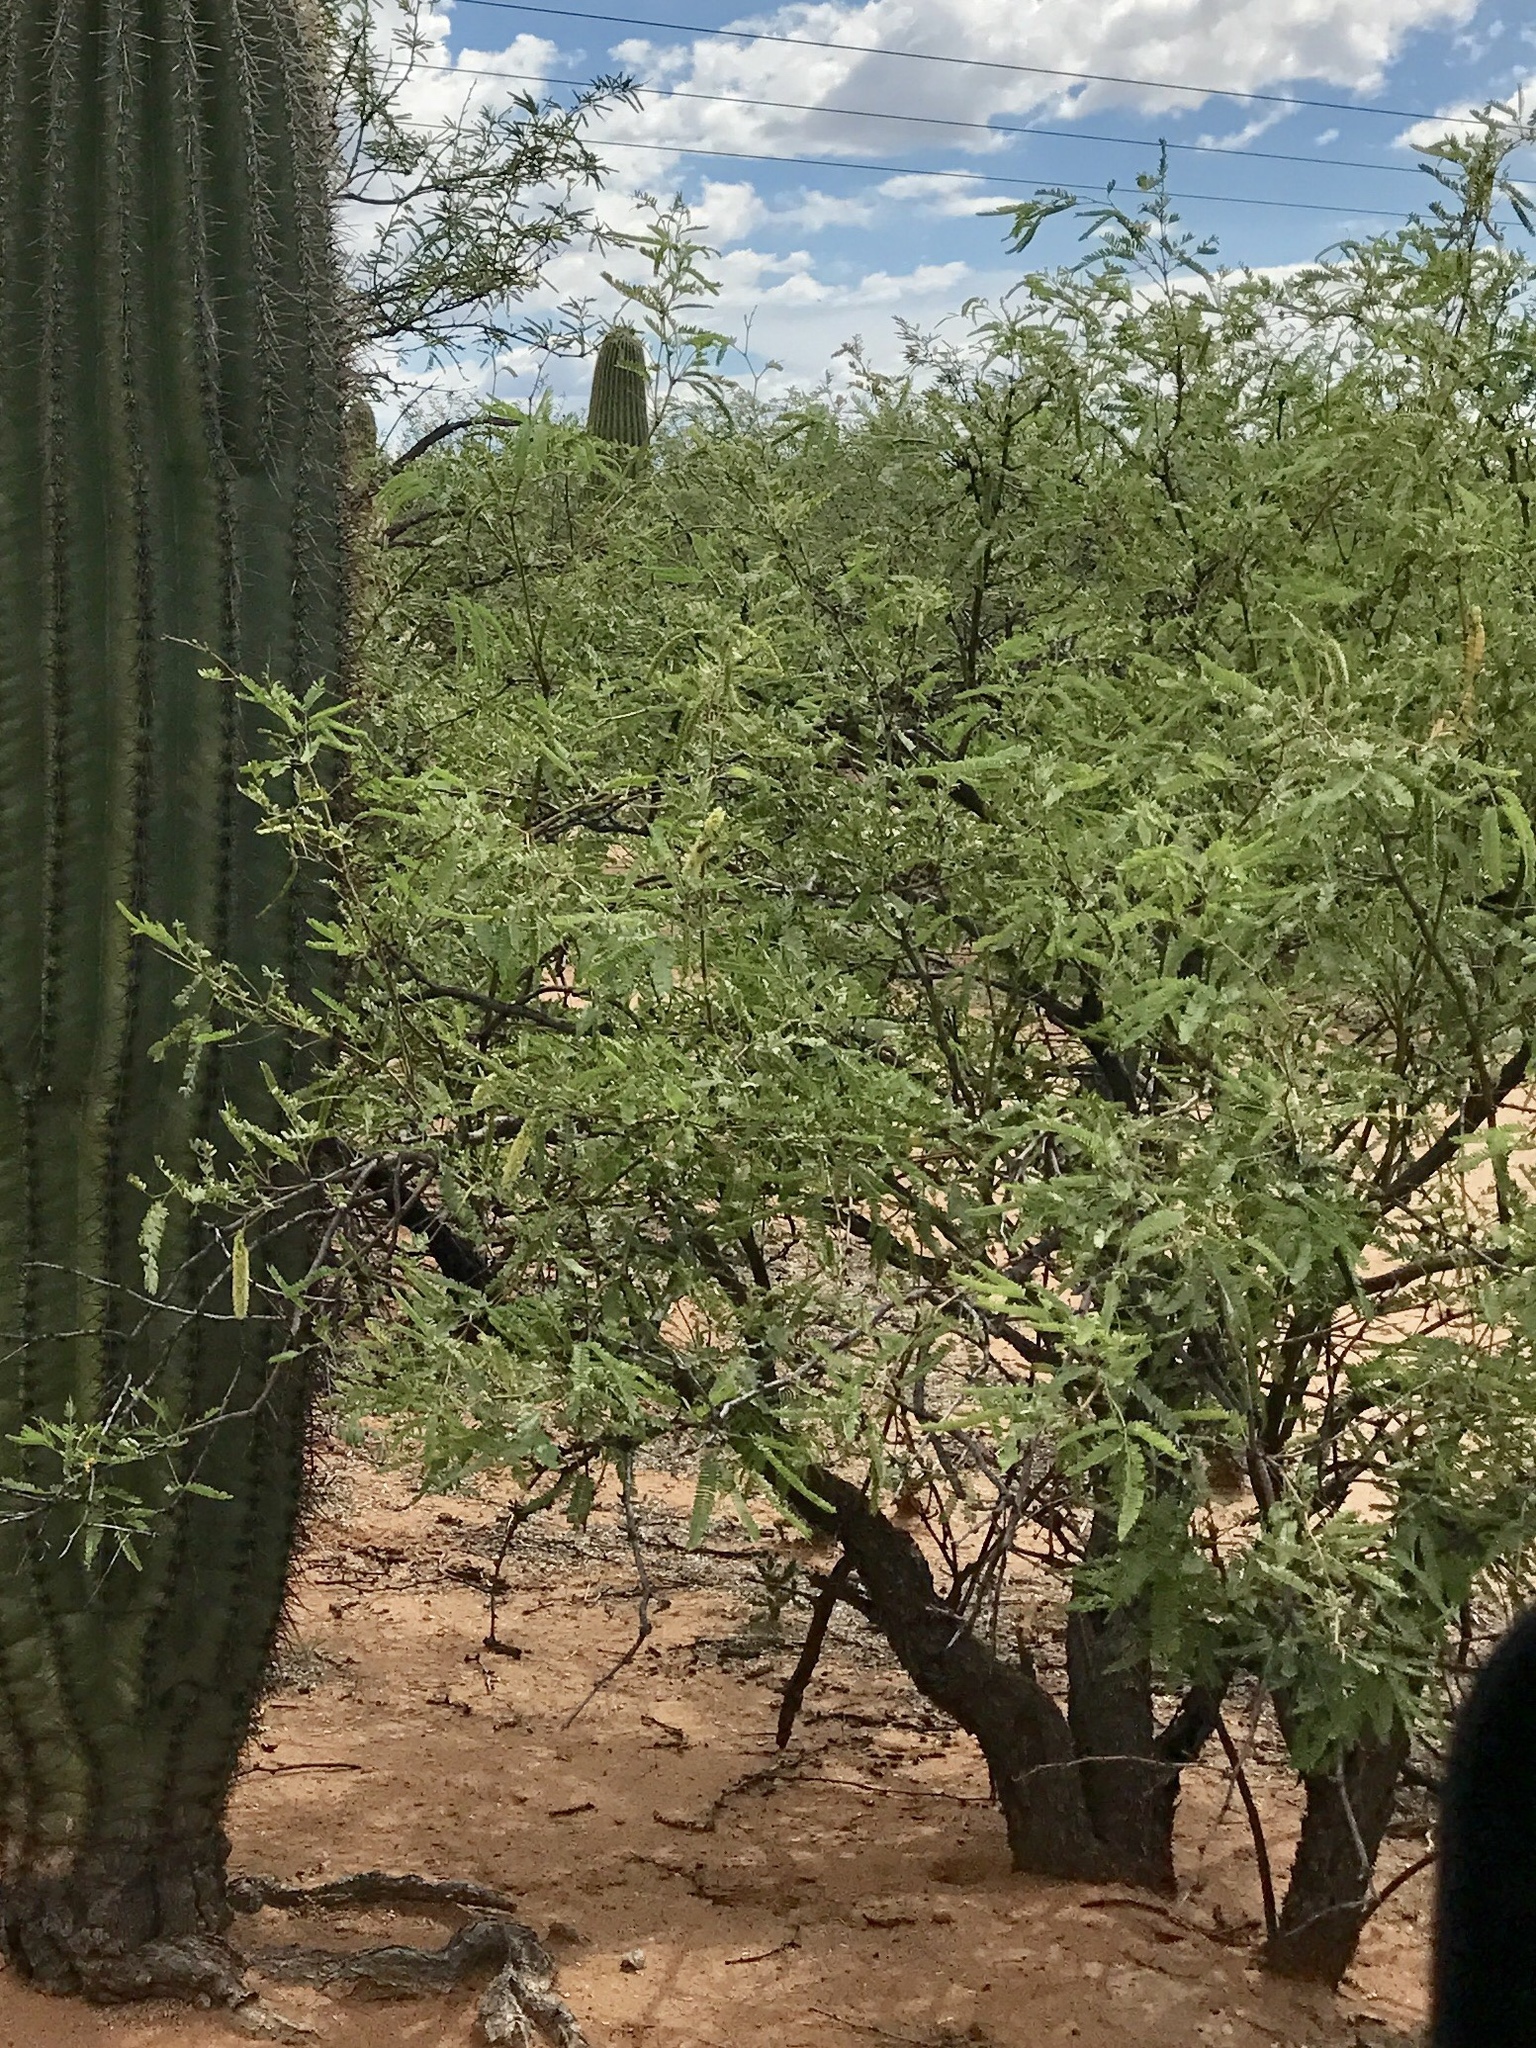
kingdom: Plantae
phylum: Tracheophyta
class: Magnoliopsida
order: Fabales
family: Fabaceae
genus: Prosopis
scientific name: Prosopis velutina
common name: Velvet mesquite
